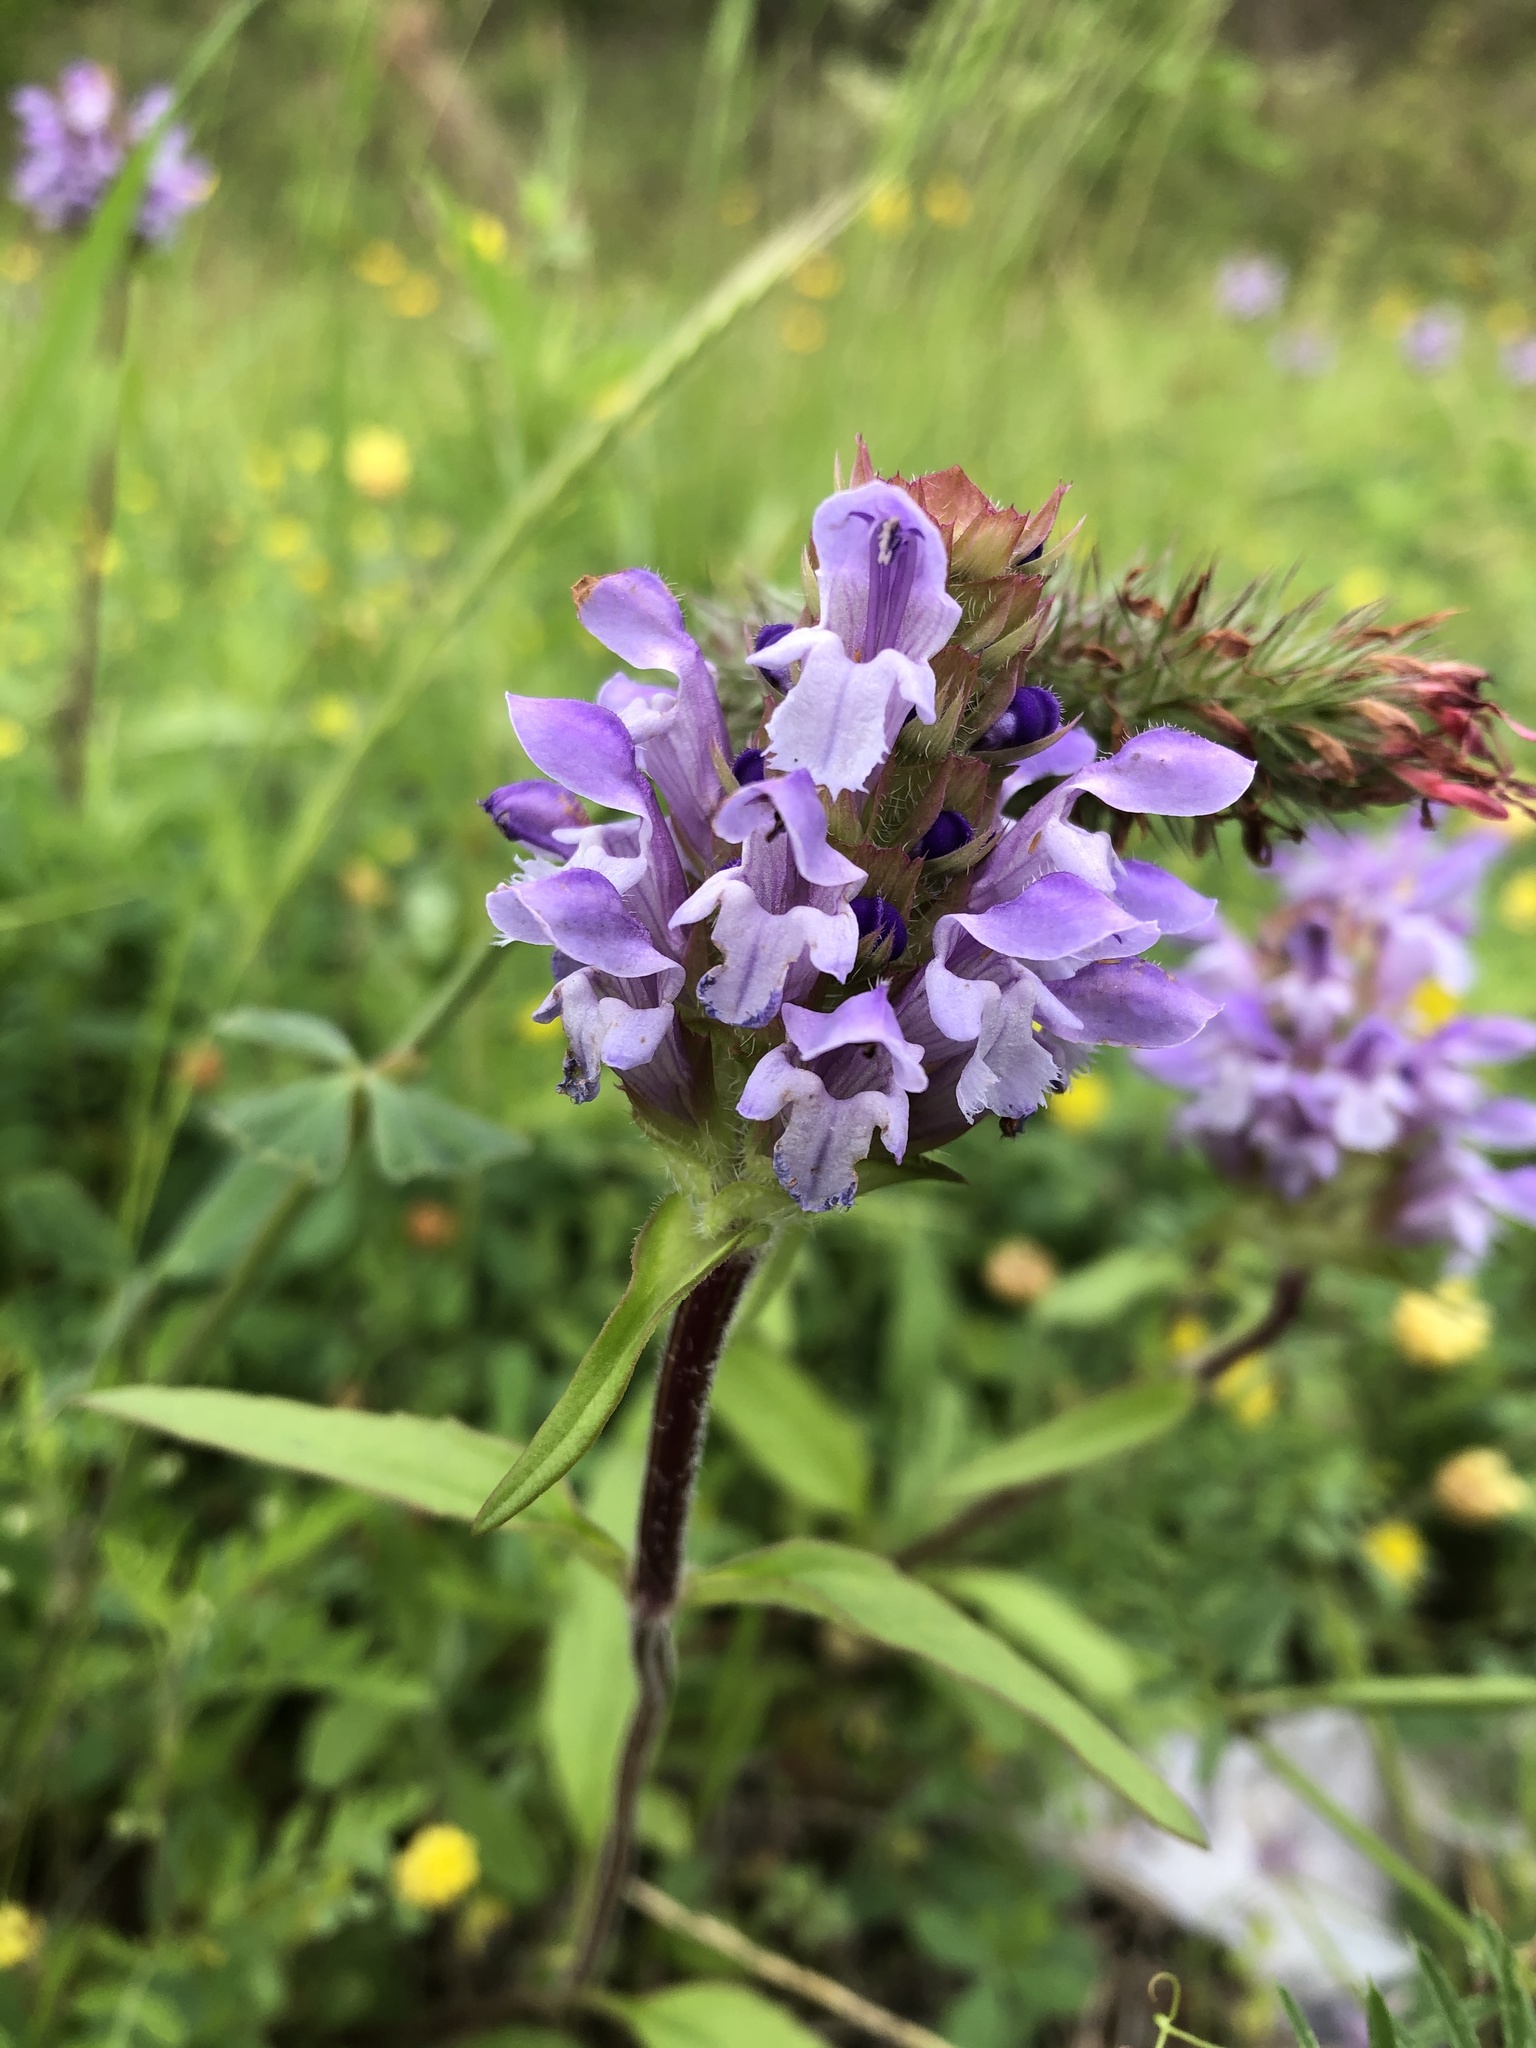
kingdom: Plantae
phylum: Tracheophyta
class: Magnoliopsida
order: Lamiales
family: Lamiaceae
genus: Prunella
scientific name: Prunella vulgaris
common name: Heal-all
